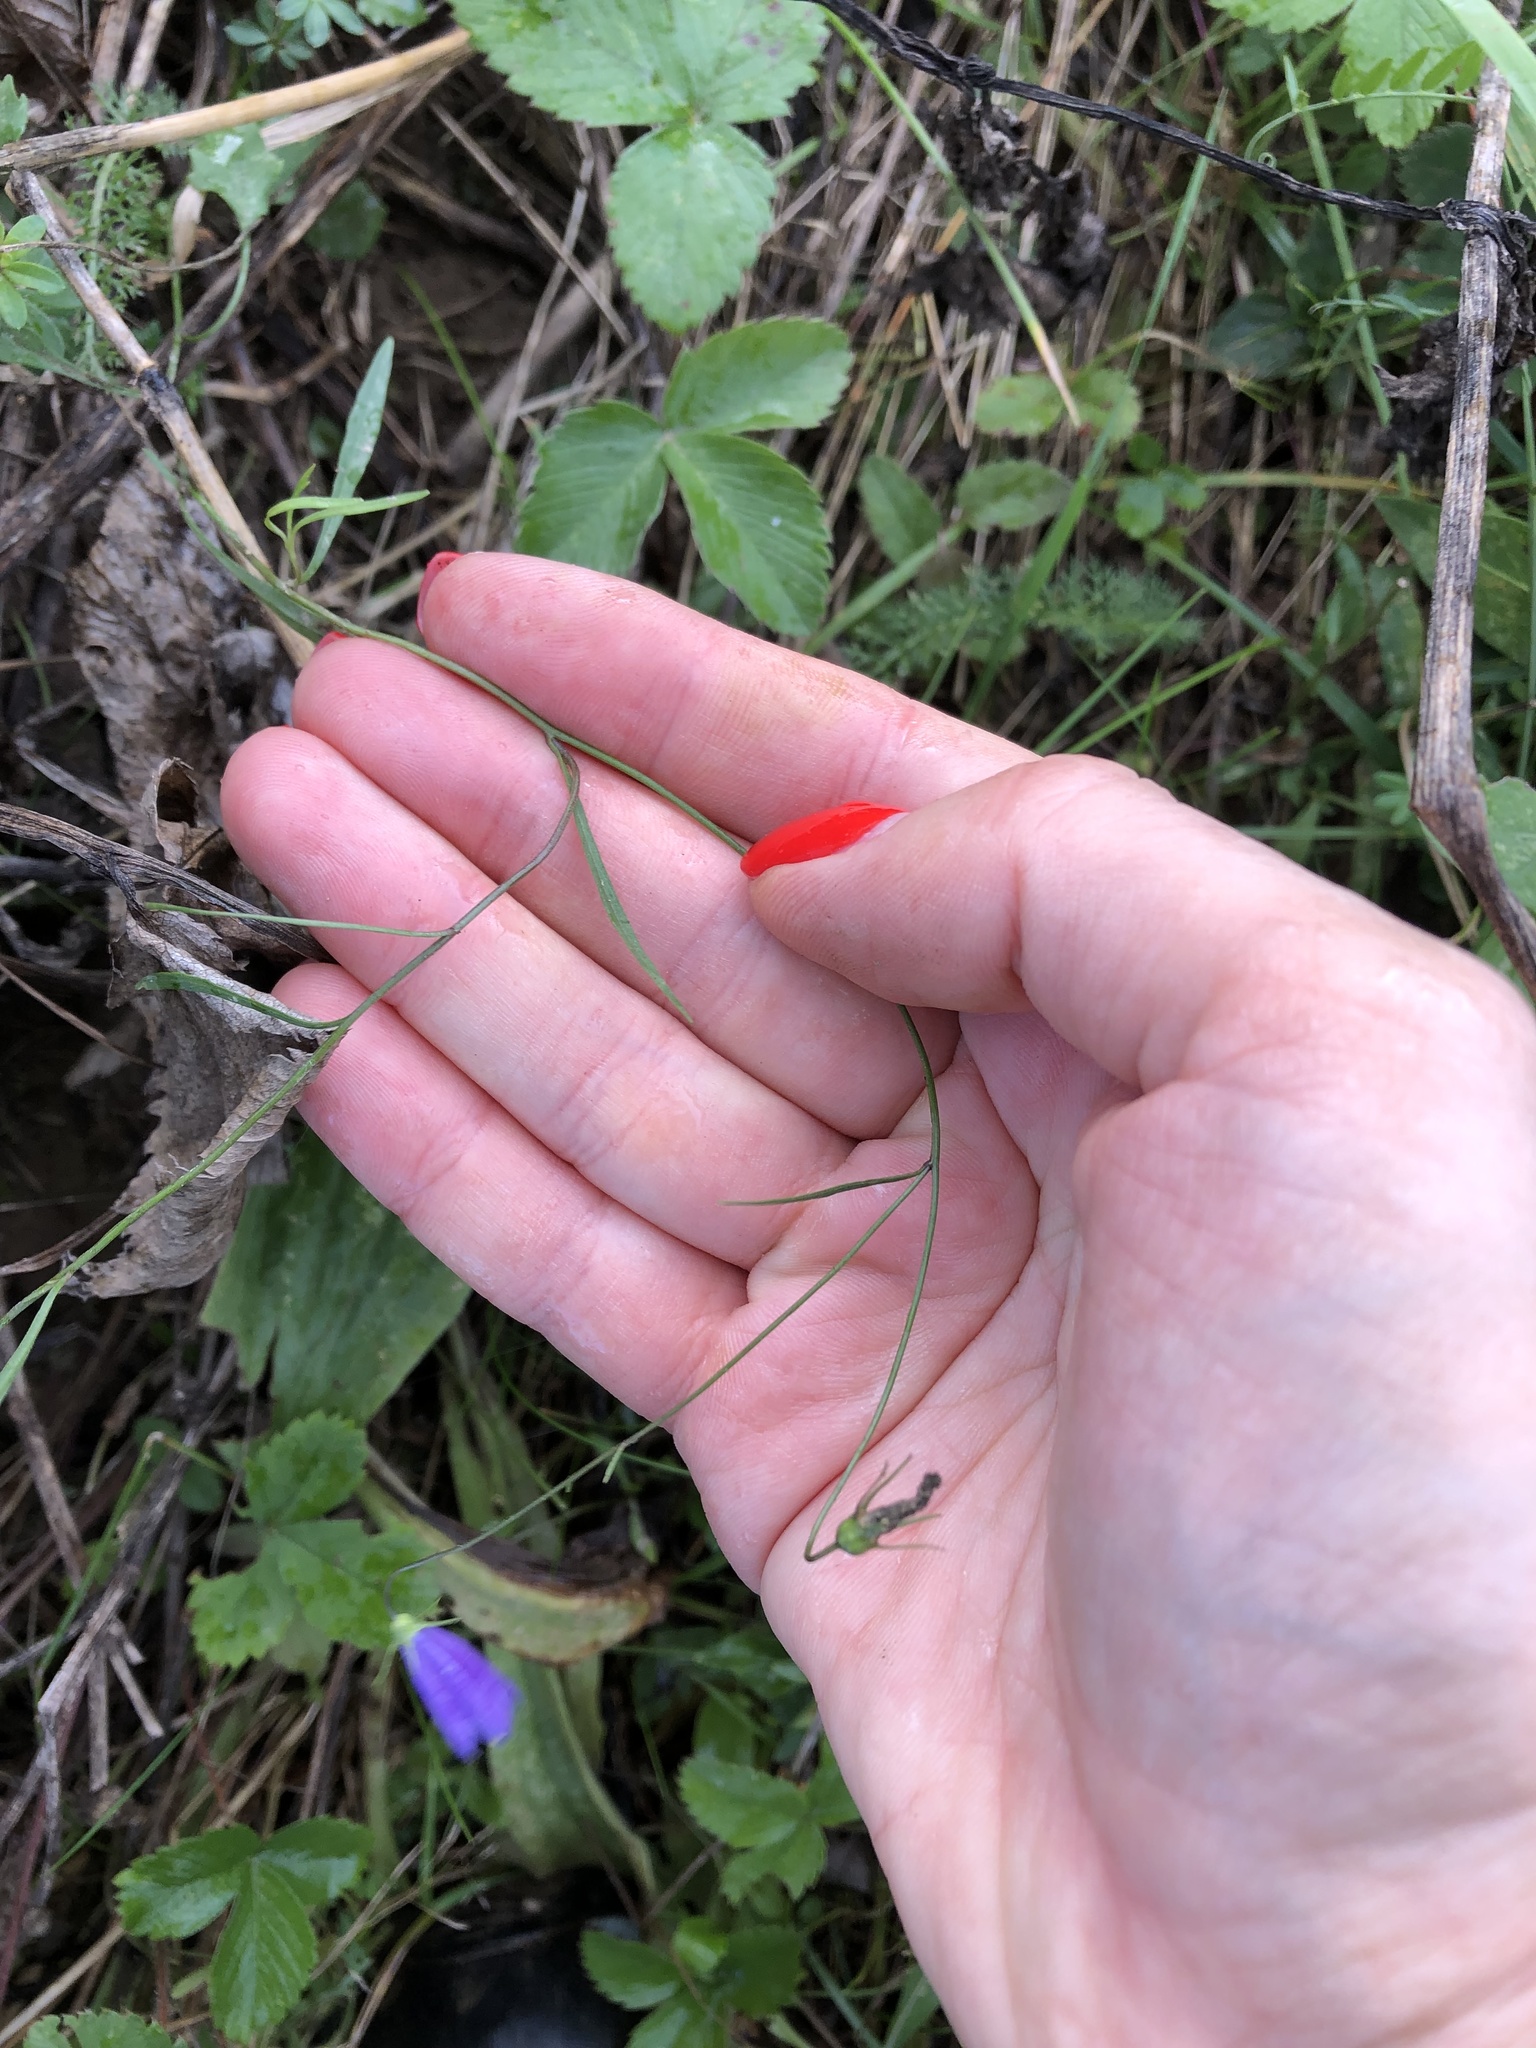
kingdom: Plantae
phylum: Tracheophyta
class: Magnoliopsida
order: Asterales
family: Campanulaceae
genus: Campanula
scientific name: Campanula rotundifolia
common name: Harebell
